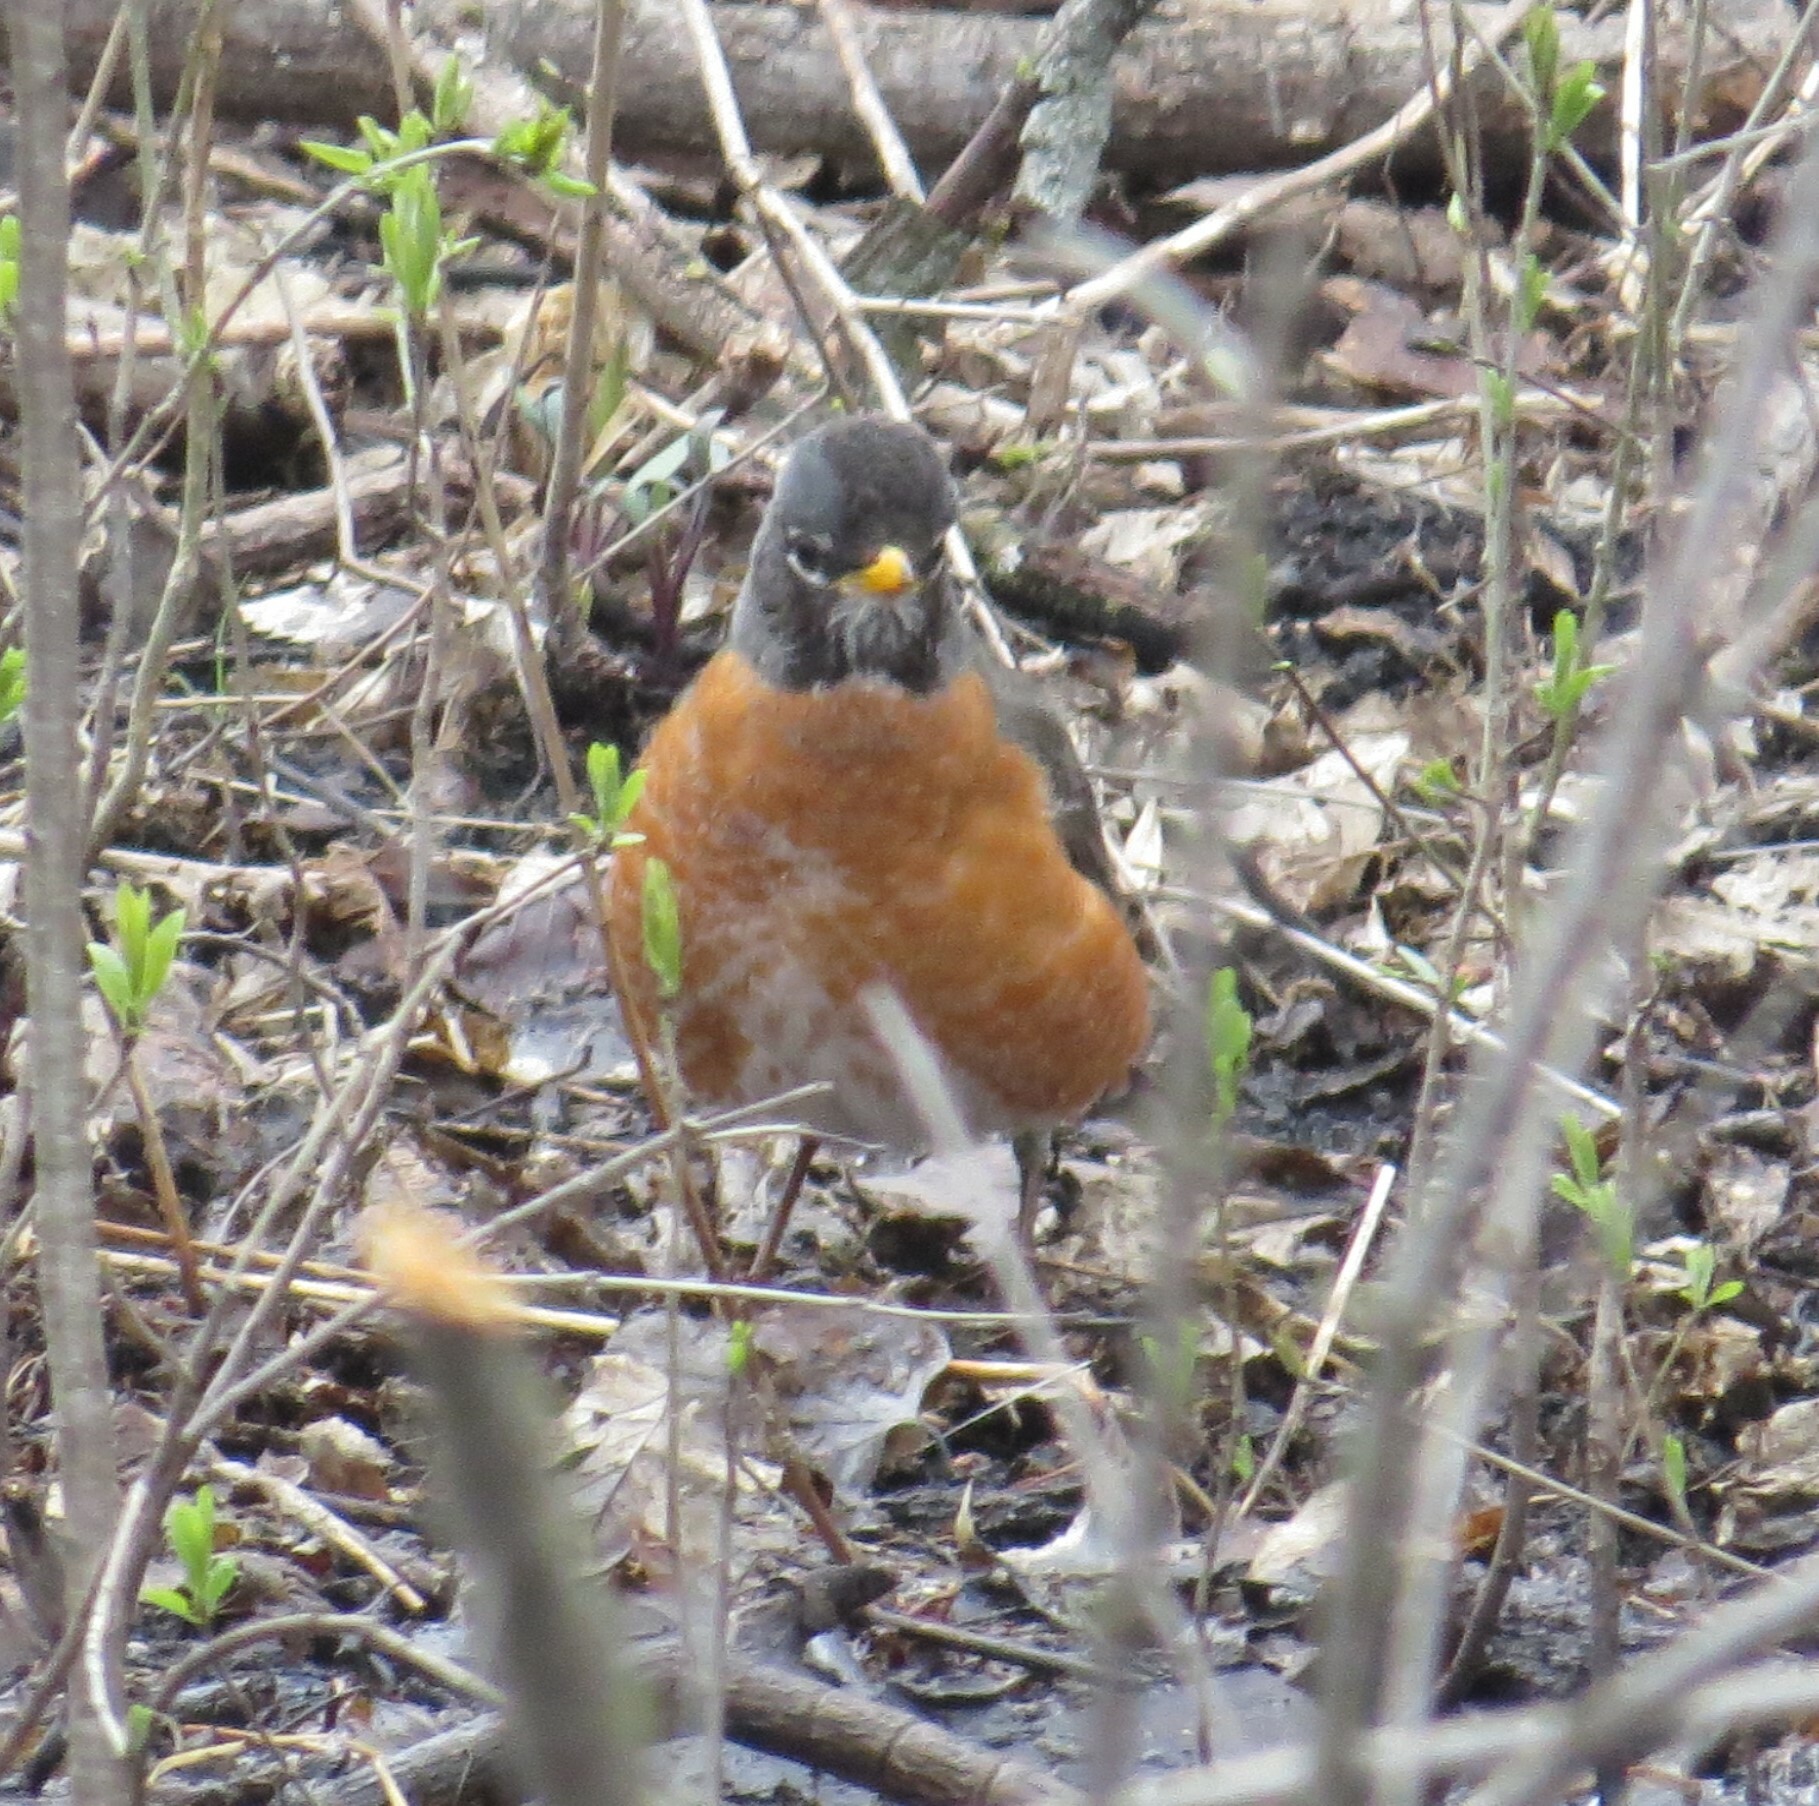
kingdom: Animalia
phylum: Chordata
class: Aves
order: Passeriformes
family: Turdidae
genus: Turdus
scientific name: Turdus migratorius
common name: American robin
